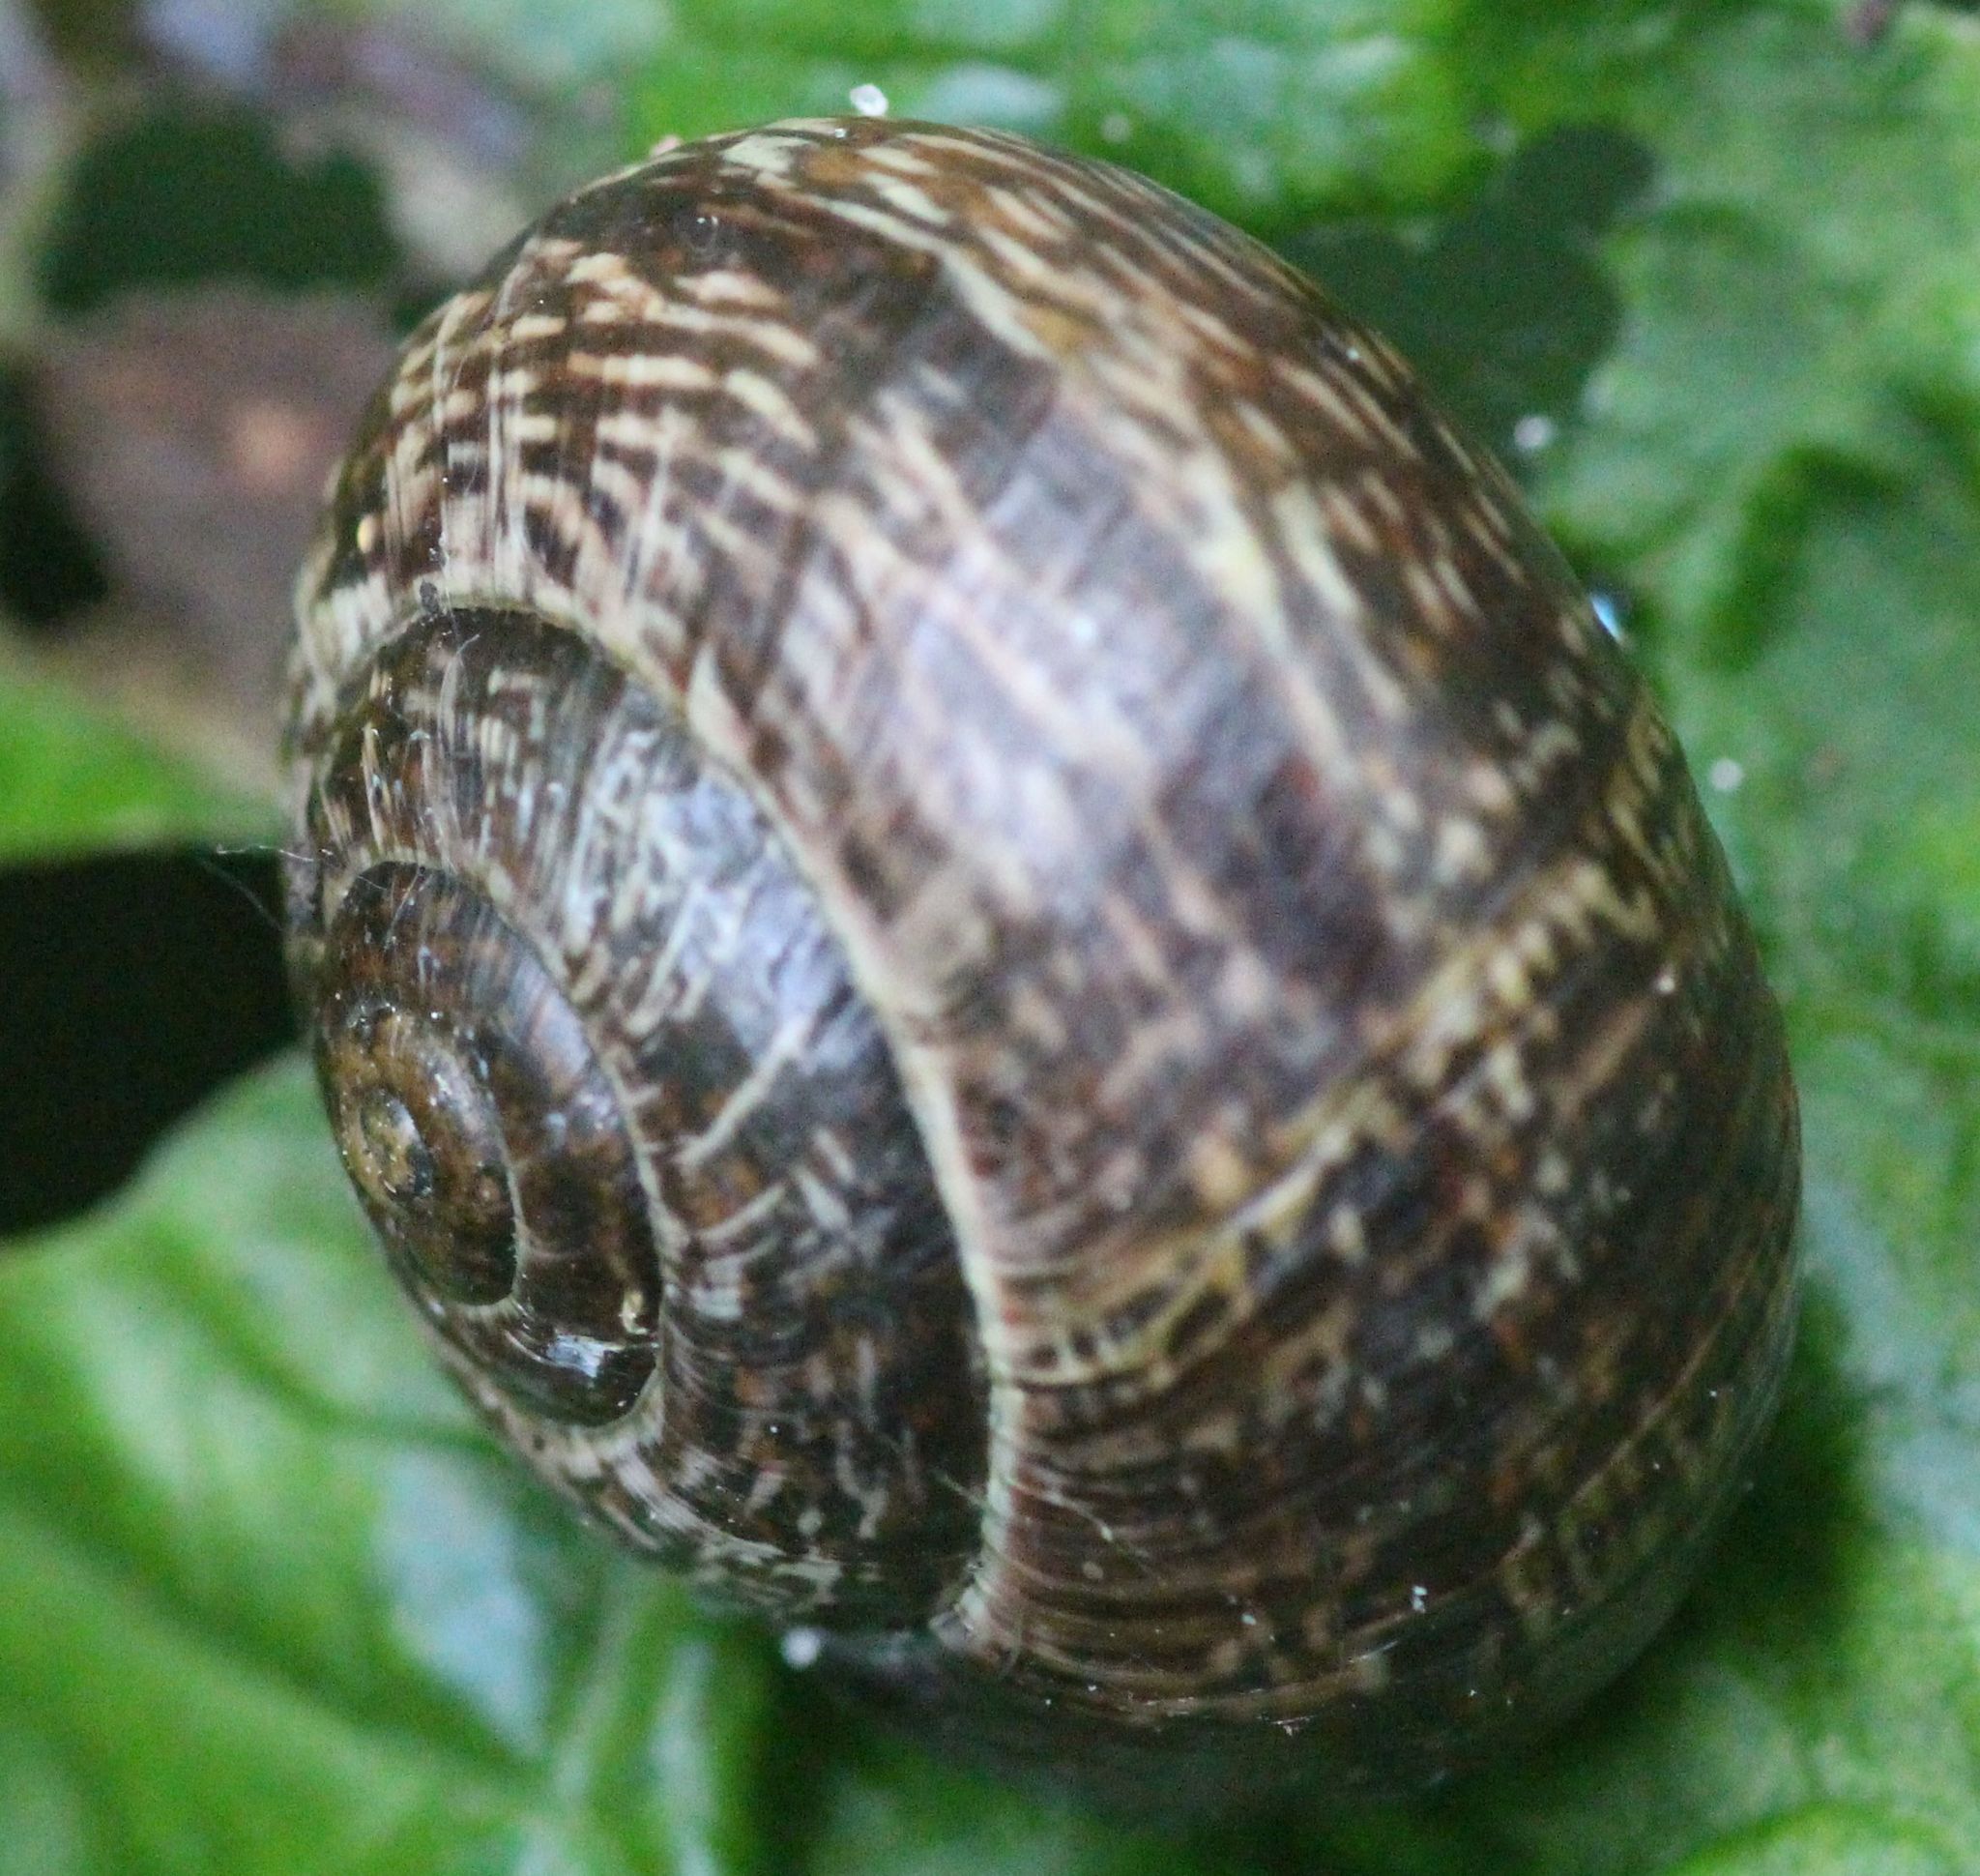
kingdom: Animalia
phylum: Mollusca
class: Gastropoda
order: Stylommatophora
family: Helicidae
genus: Arianta
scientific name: Arianta arbustorum
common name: Copse snail
